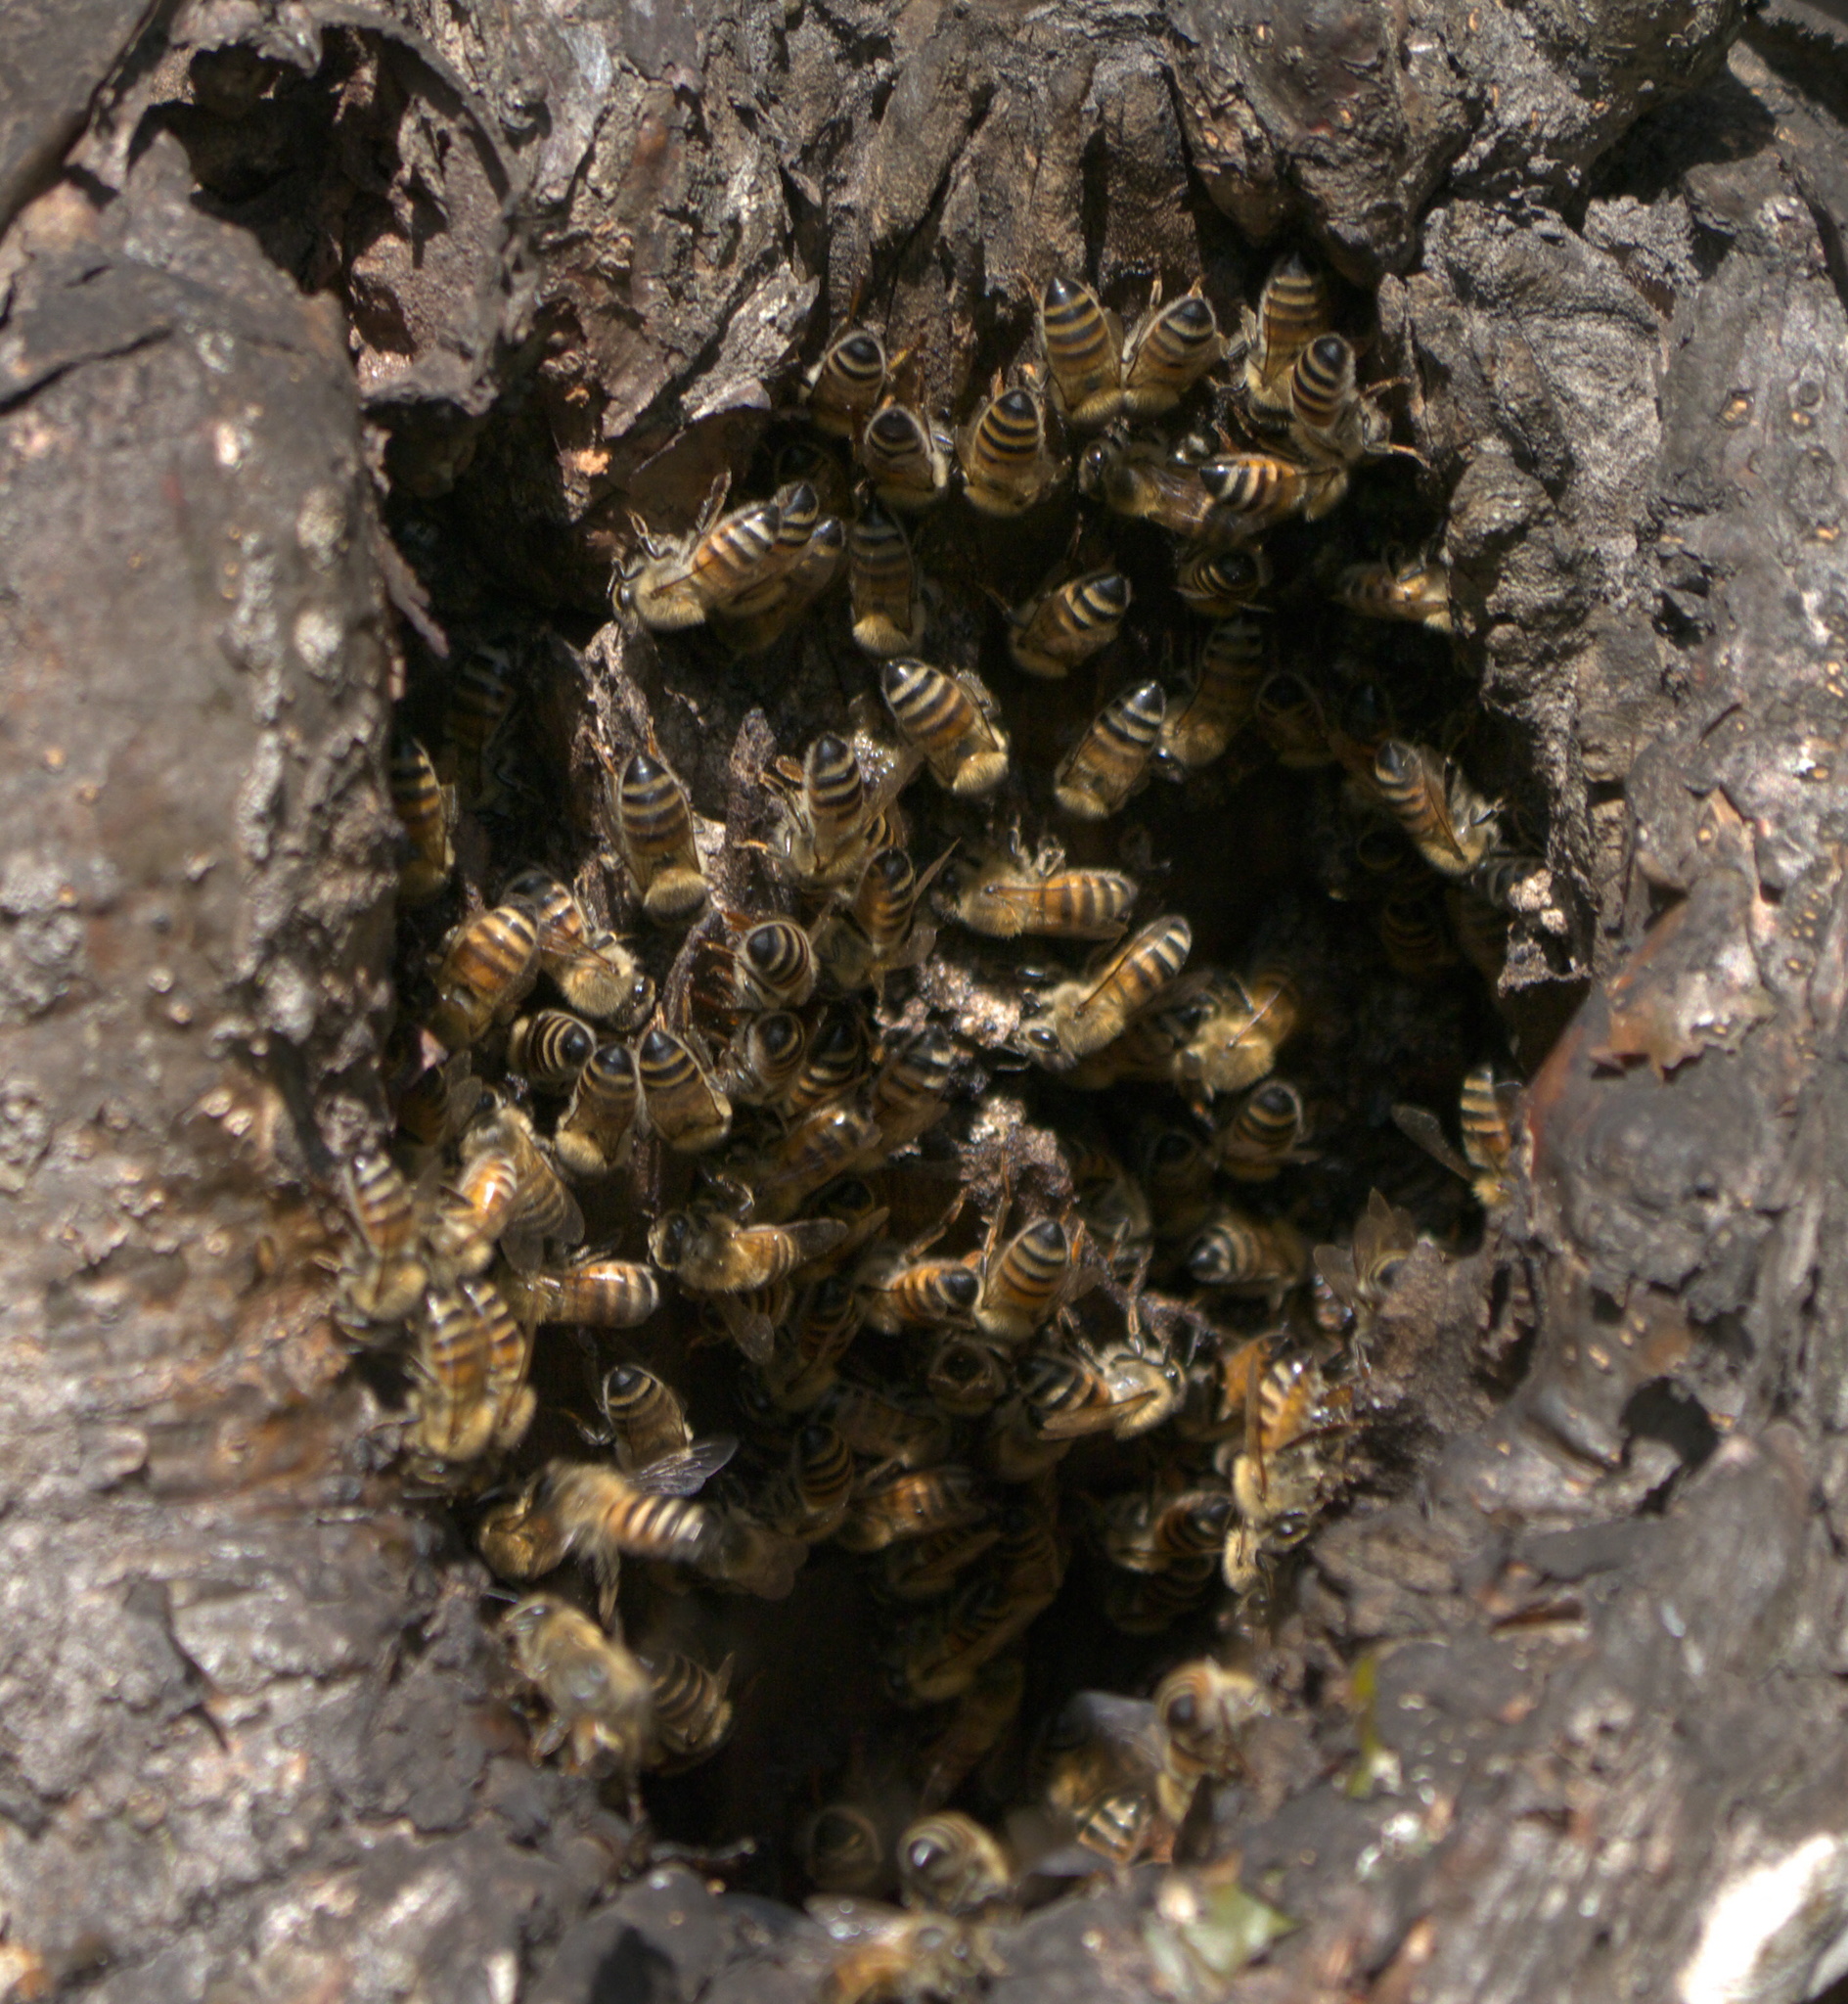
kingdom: Animalia
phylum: Arthropoda
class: Insecta
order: Hymenoptera
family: Apidae
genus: Apis
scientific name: Apis mellifera
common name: Honey bee
